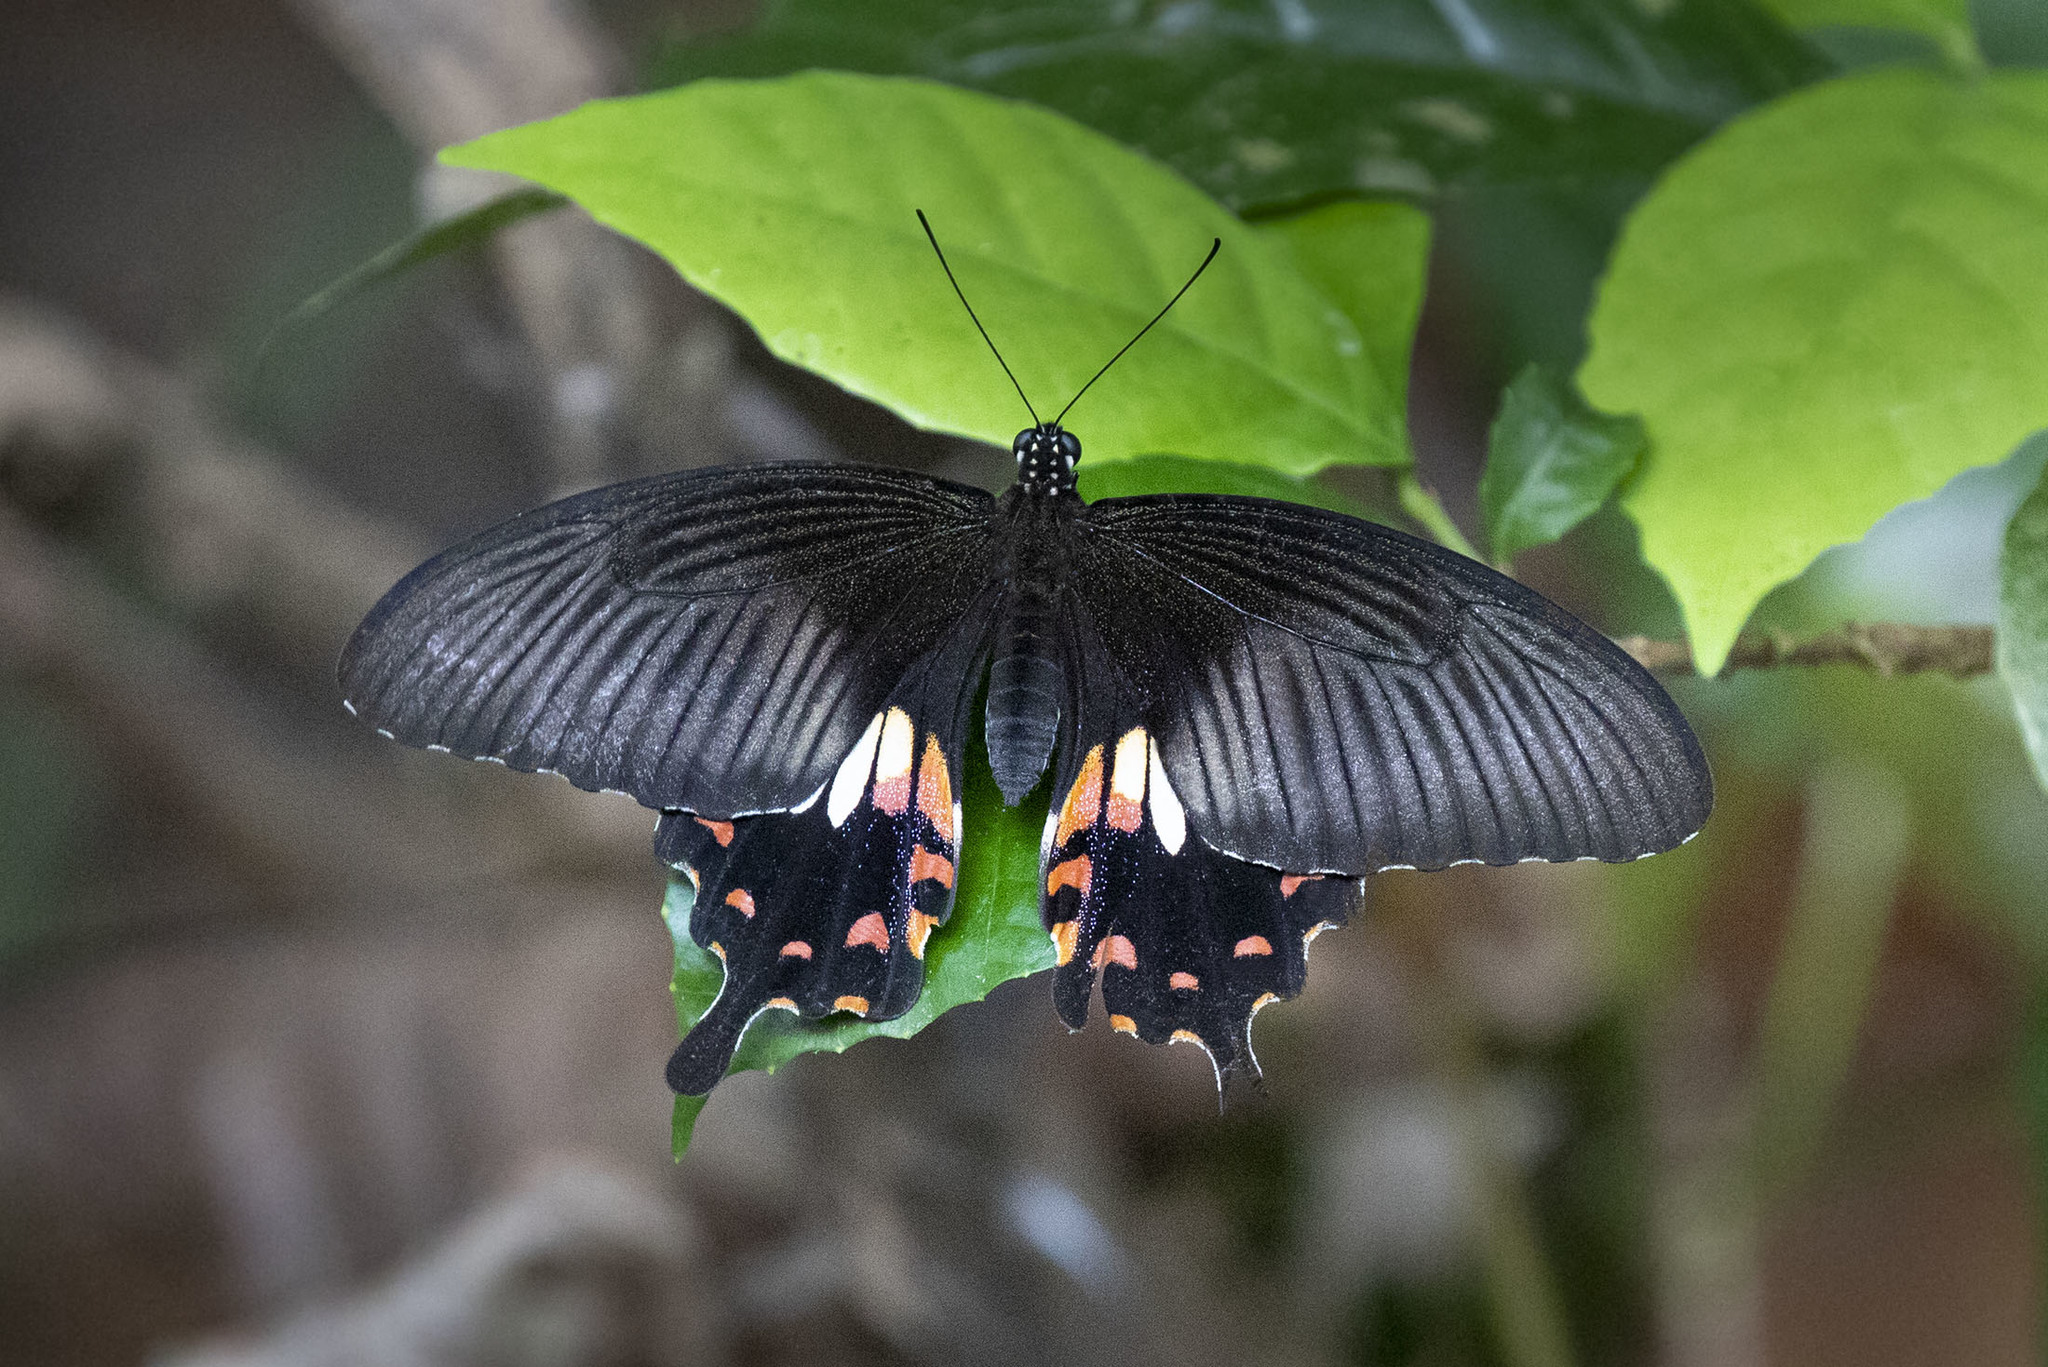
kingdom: Animalia
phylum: Arthropoda
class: Insecta
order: Lepidoptera
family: Papilionidae
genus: Papilio
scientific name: Papilio polytes
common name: Common mormon
